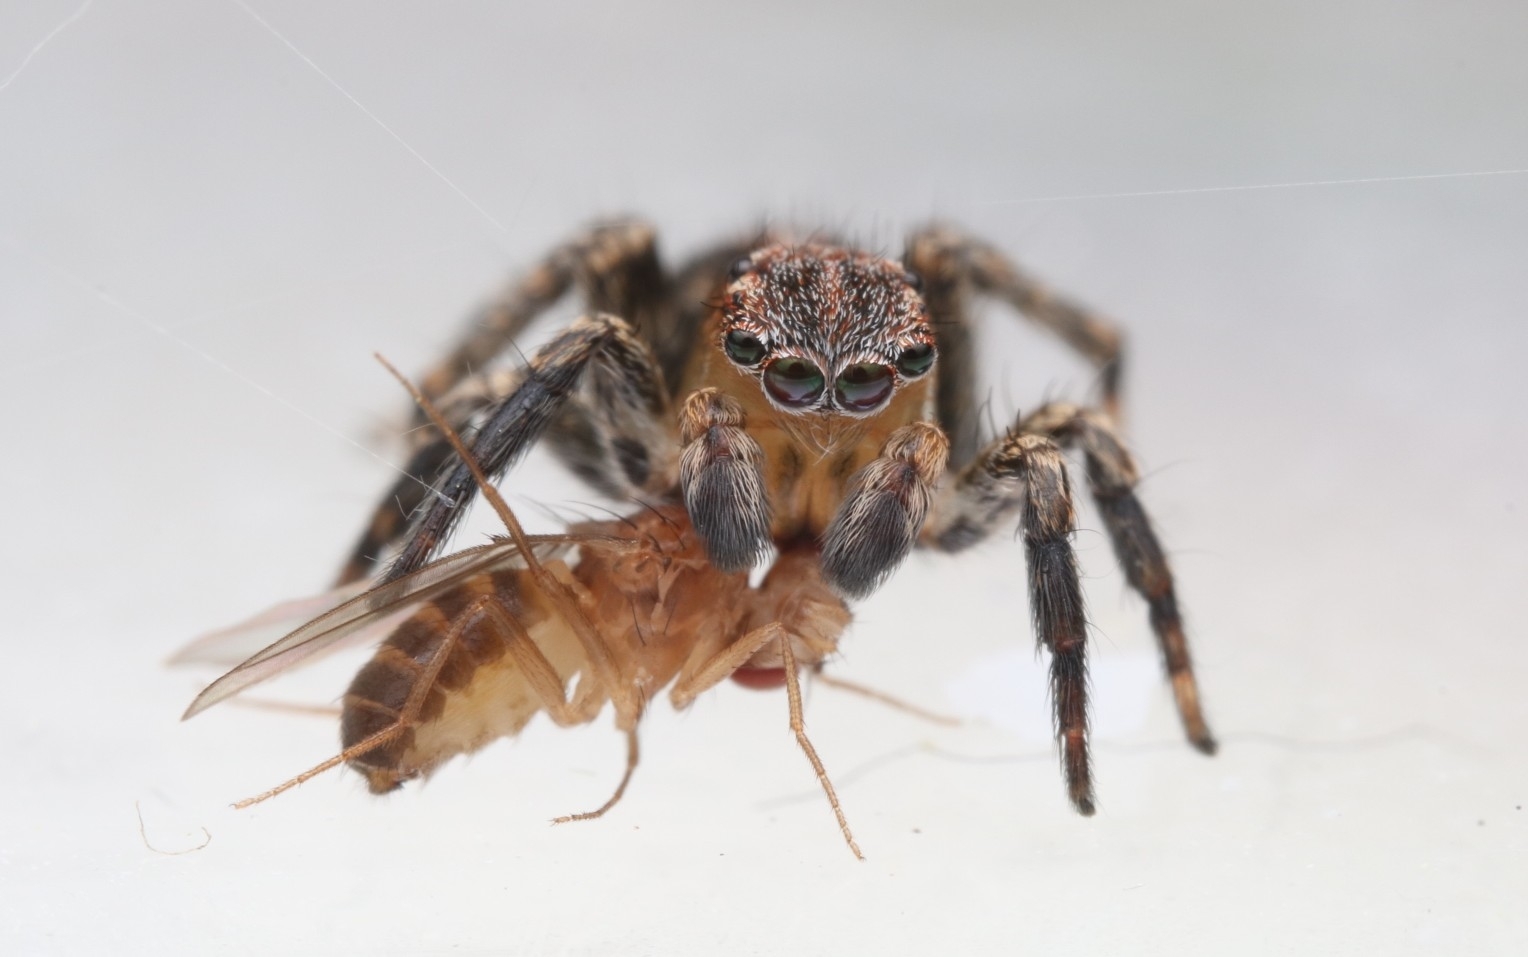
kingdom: Animalia
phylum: Arthropoda
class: Arachnida
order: Araneae
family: Salticidae
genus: Naphrys
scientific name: Naphrys pulex
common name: Flea jumping spider
